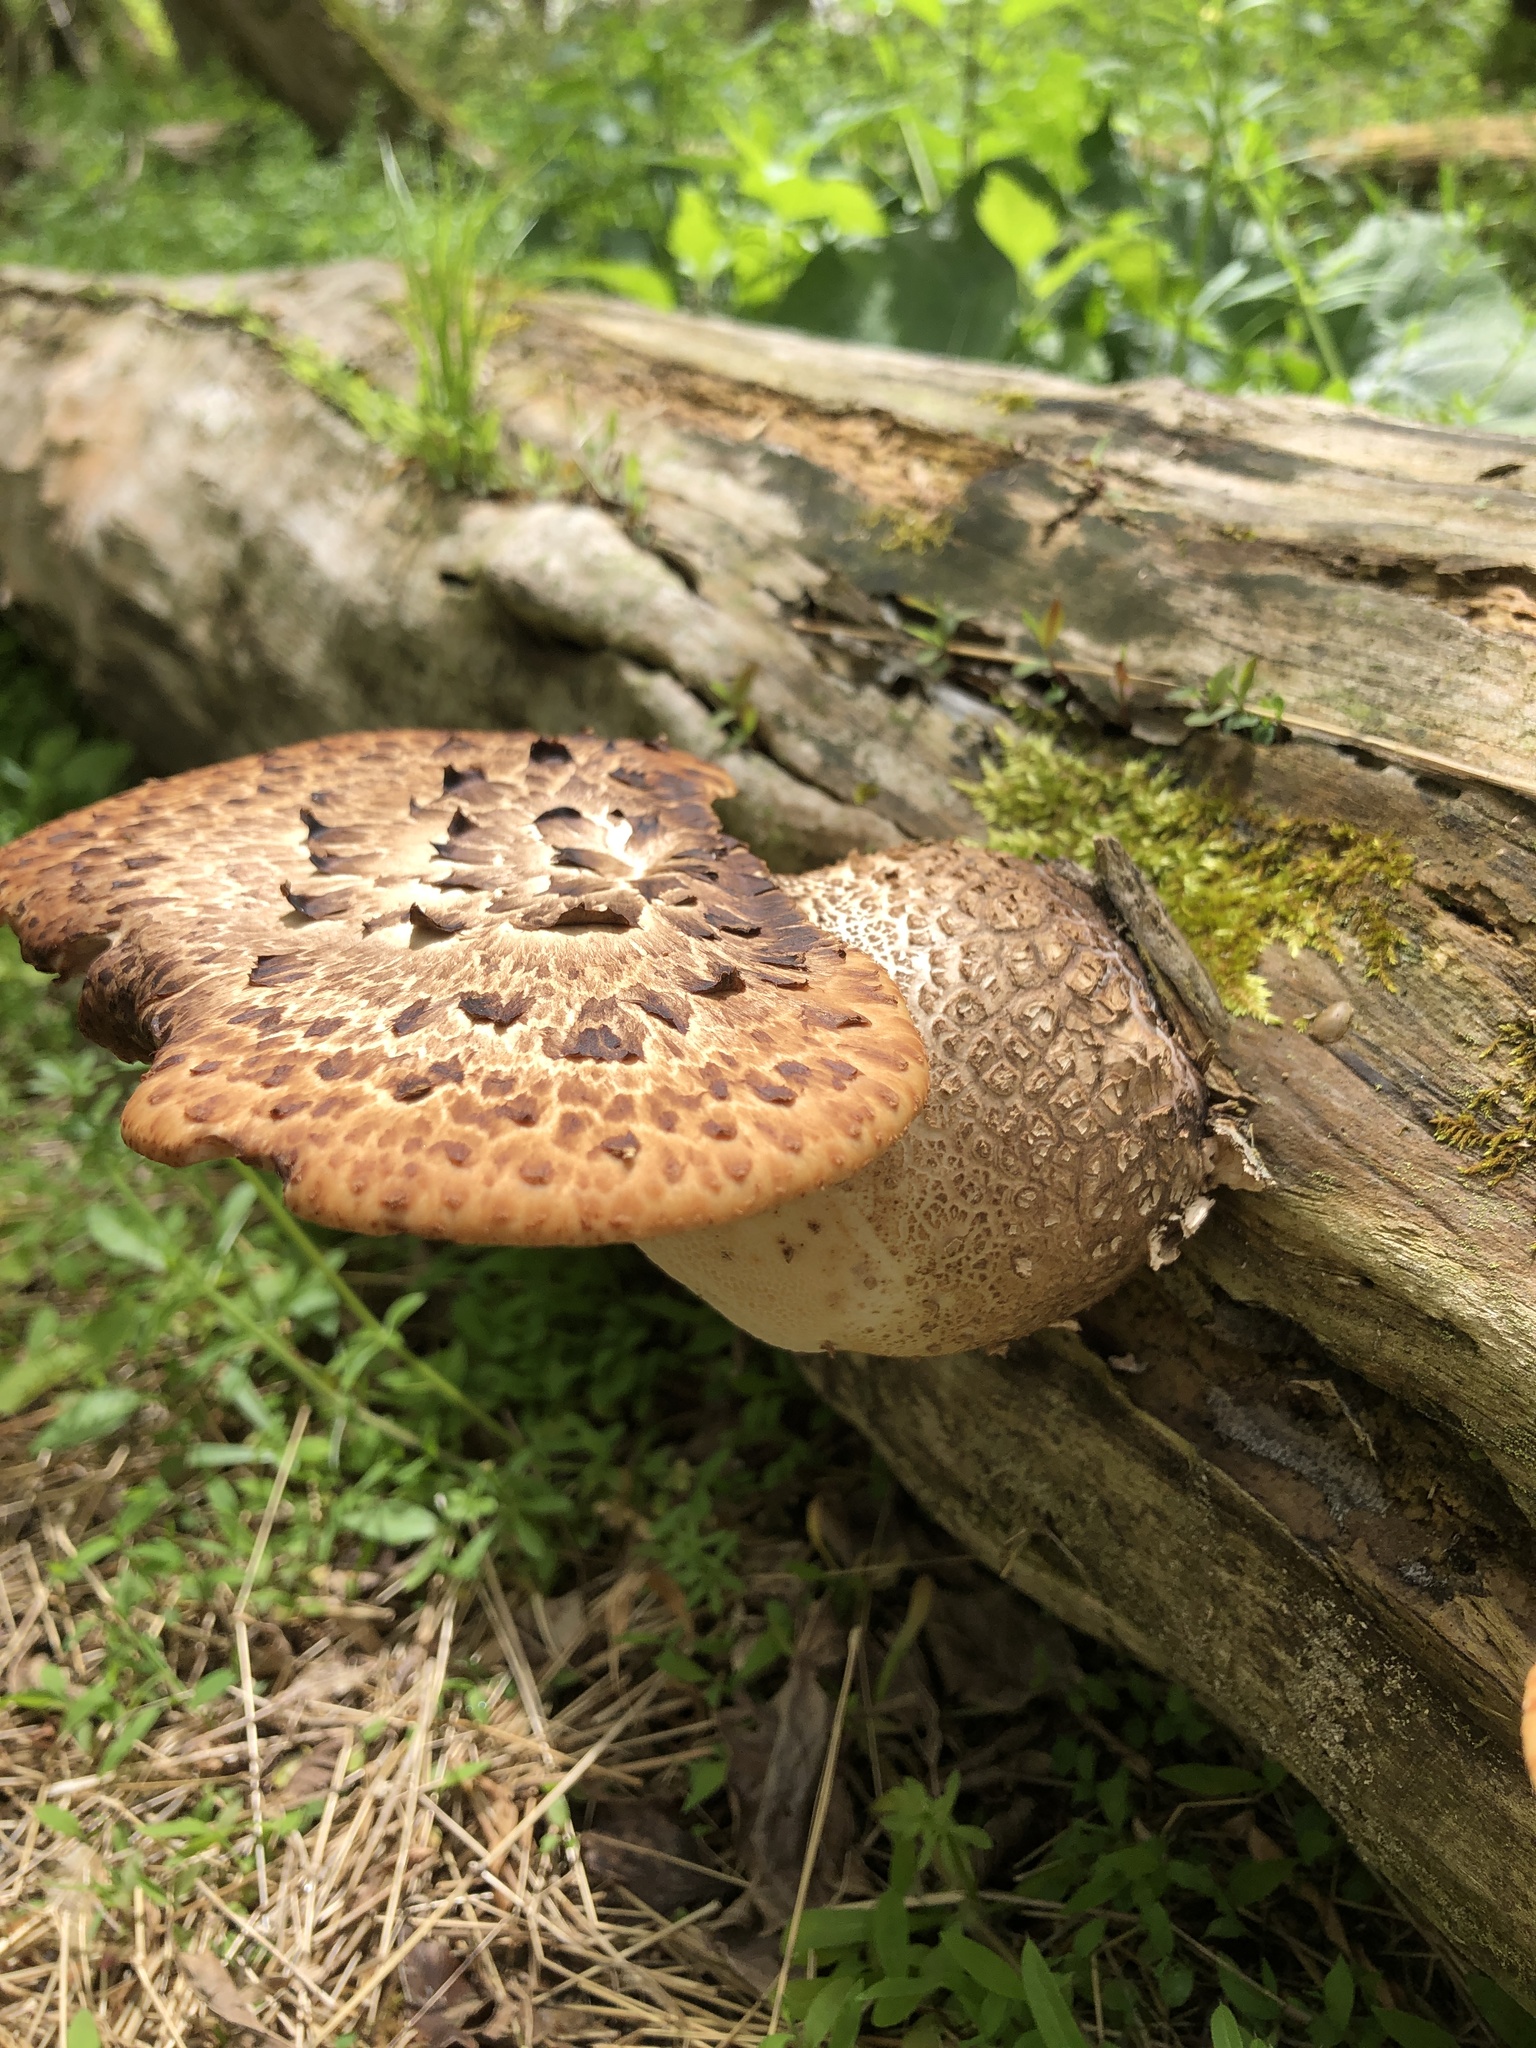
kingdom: Fungi
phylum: Basidiomycota
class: Agaricomycetes
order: Polyporales
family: Polyporaceae
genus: Cerioporus
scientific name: Cerioporus squamosus
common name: Dryad's saddle
